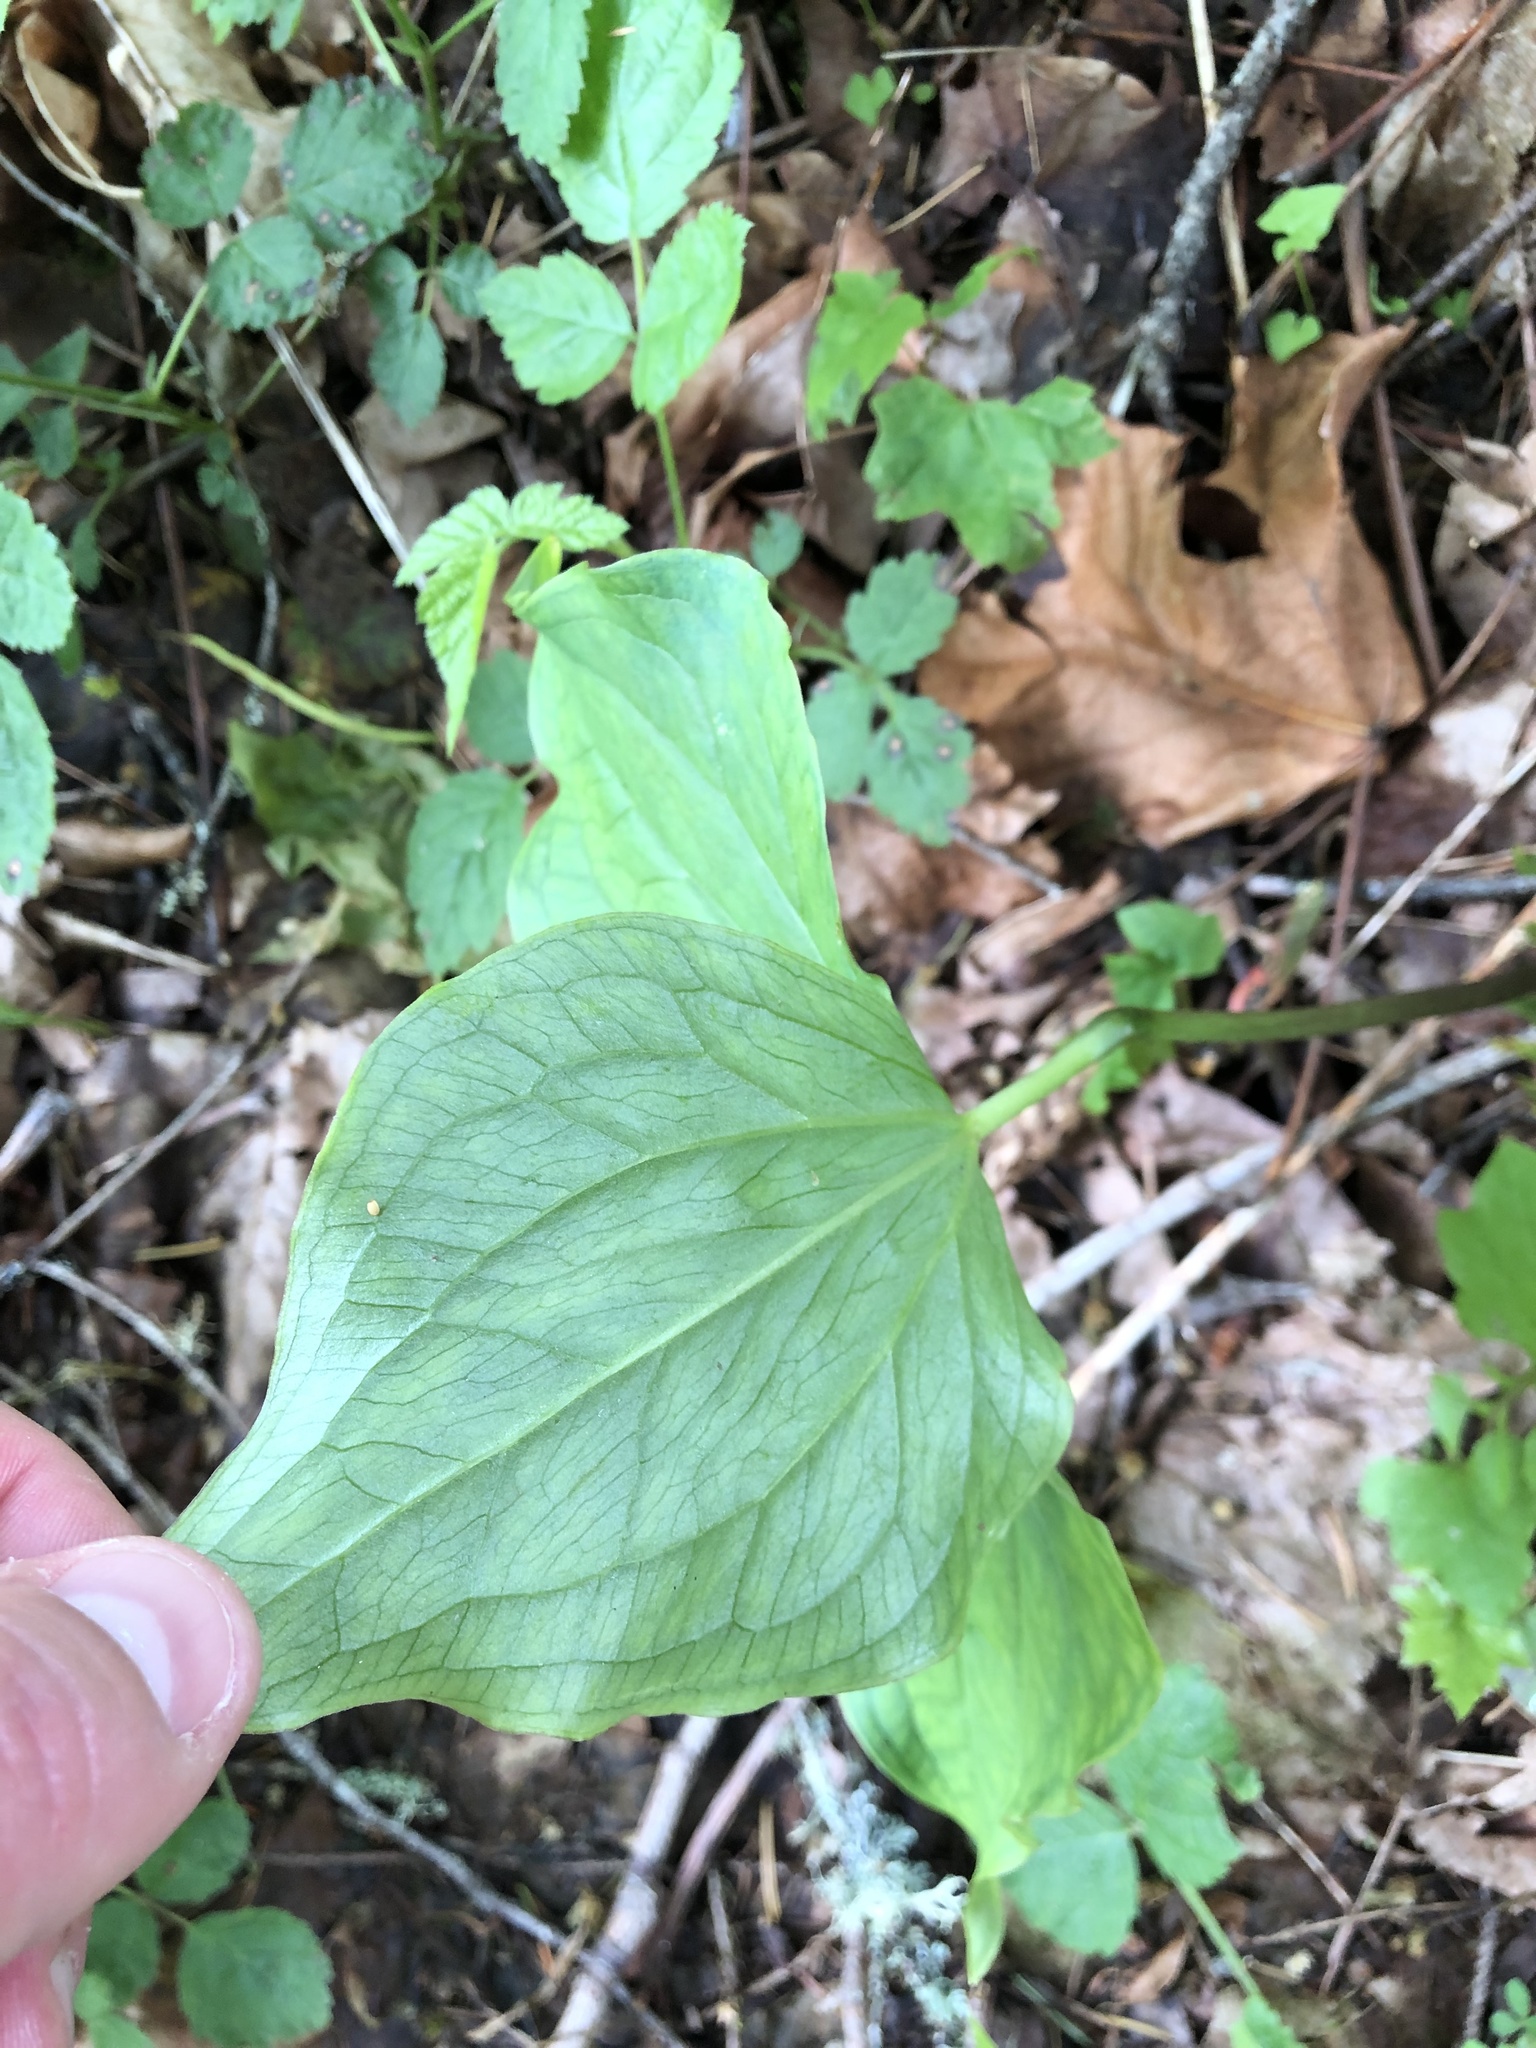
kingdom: Plantae
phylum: Tracheophyta
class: Liliopsida
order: Liliales
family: Melanthiaceae
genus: Trillium
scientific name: Trillium ovatum
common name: Pacific trillium
